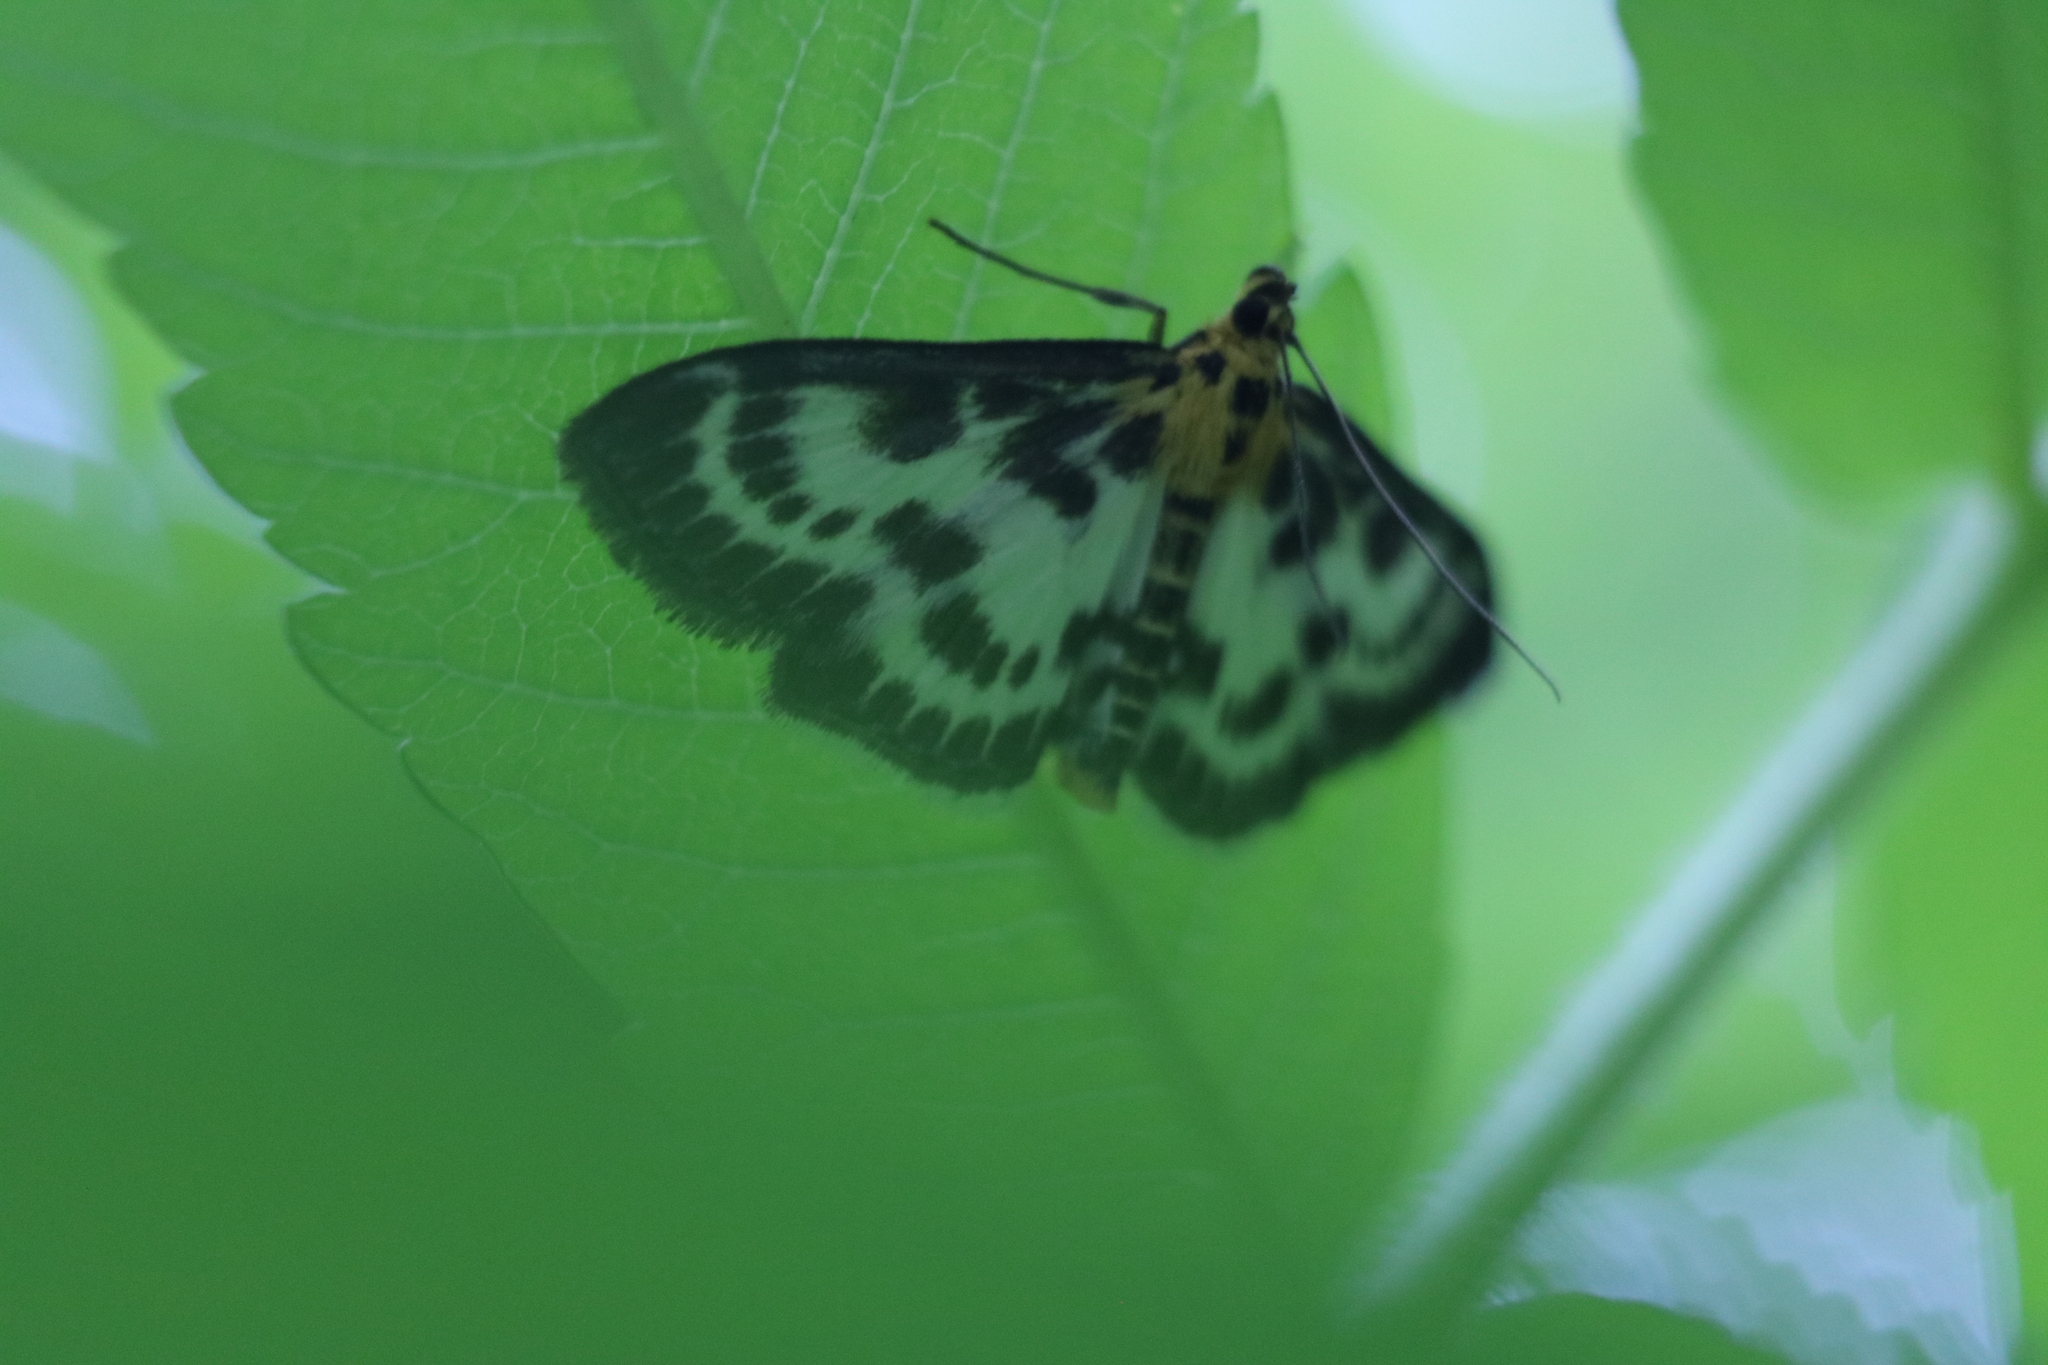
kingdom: Animalia
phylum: Arthropoda
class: Insecta
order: Lepidoptera
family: Crambidae
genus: Anania
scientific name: Anania hortulata
